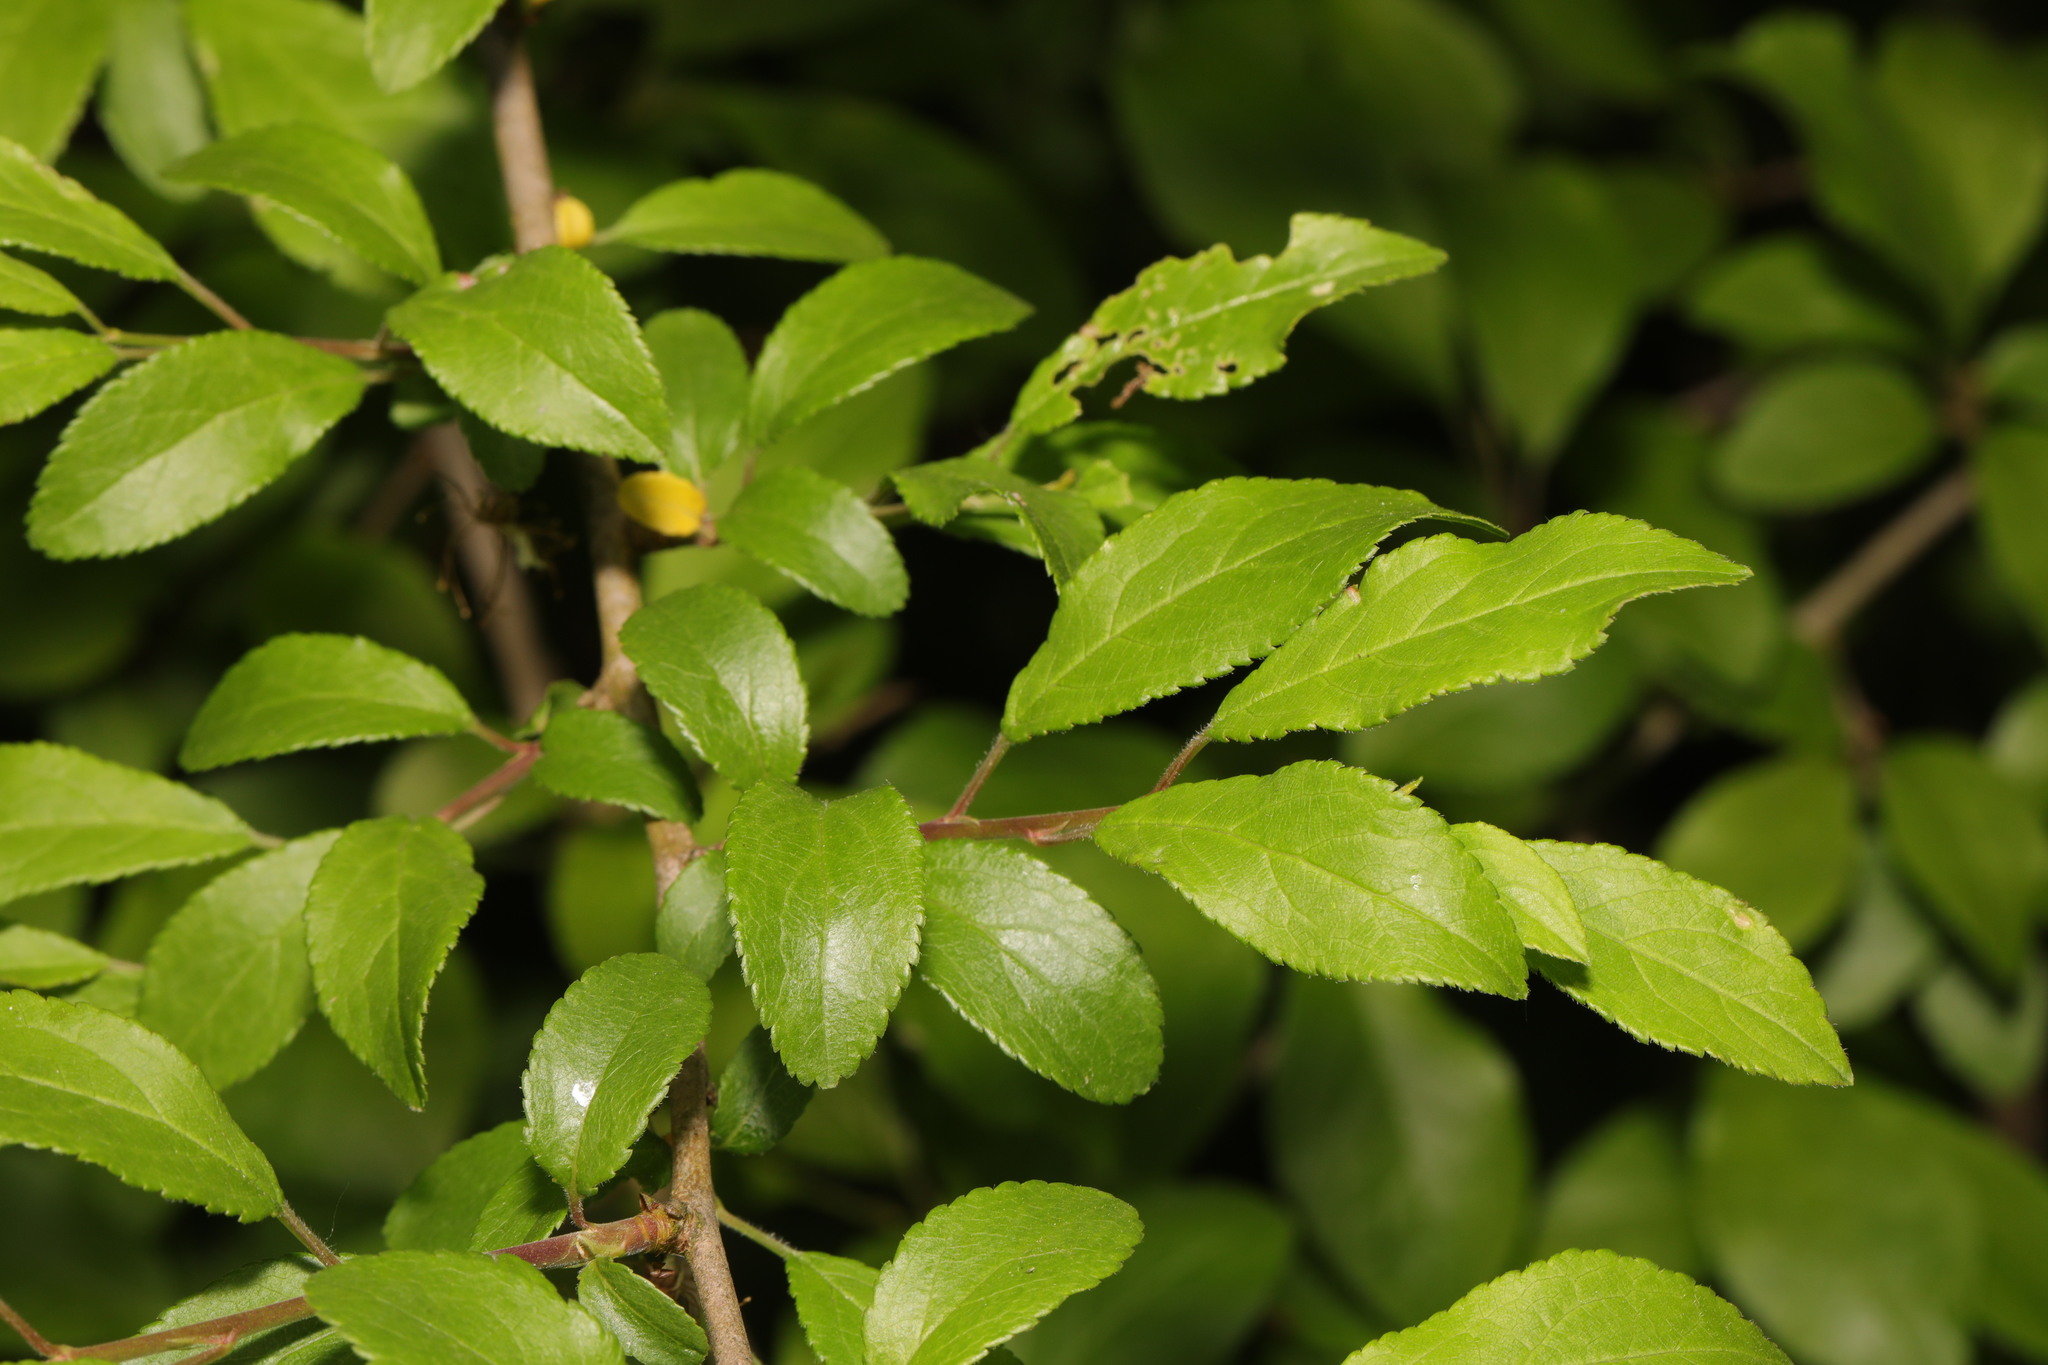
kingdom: Plantae
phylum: Tracheophyta
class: Magnoliopsida
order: Rosales
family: Rosaceae
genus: Prunus
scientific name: Prunus spinosa
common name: Blackthorn
